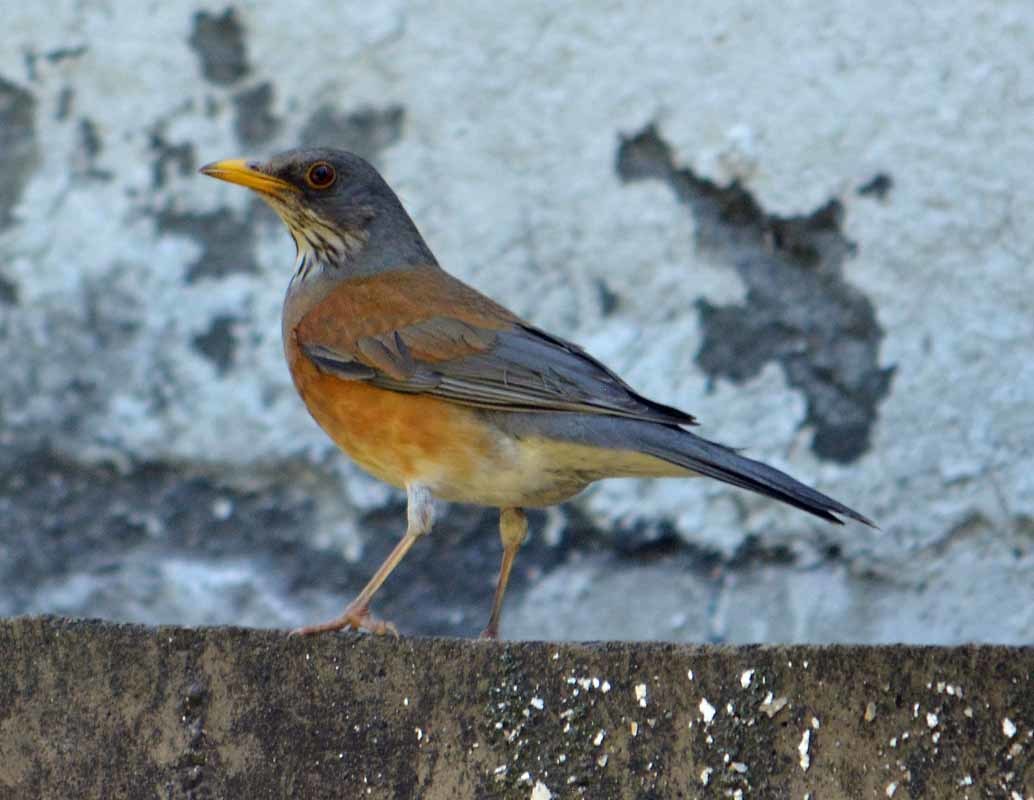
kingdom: Animalia
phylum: Chordata
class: Aves
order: Passeriformes
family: Turdidae
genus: Turdus
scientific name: Turdus rufopalliatus
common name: Rufous-backed robin
